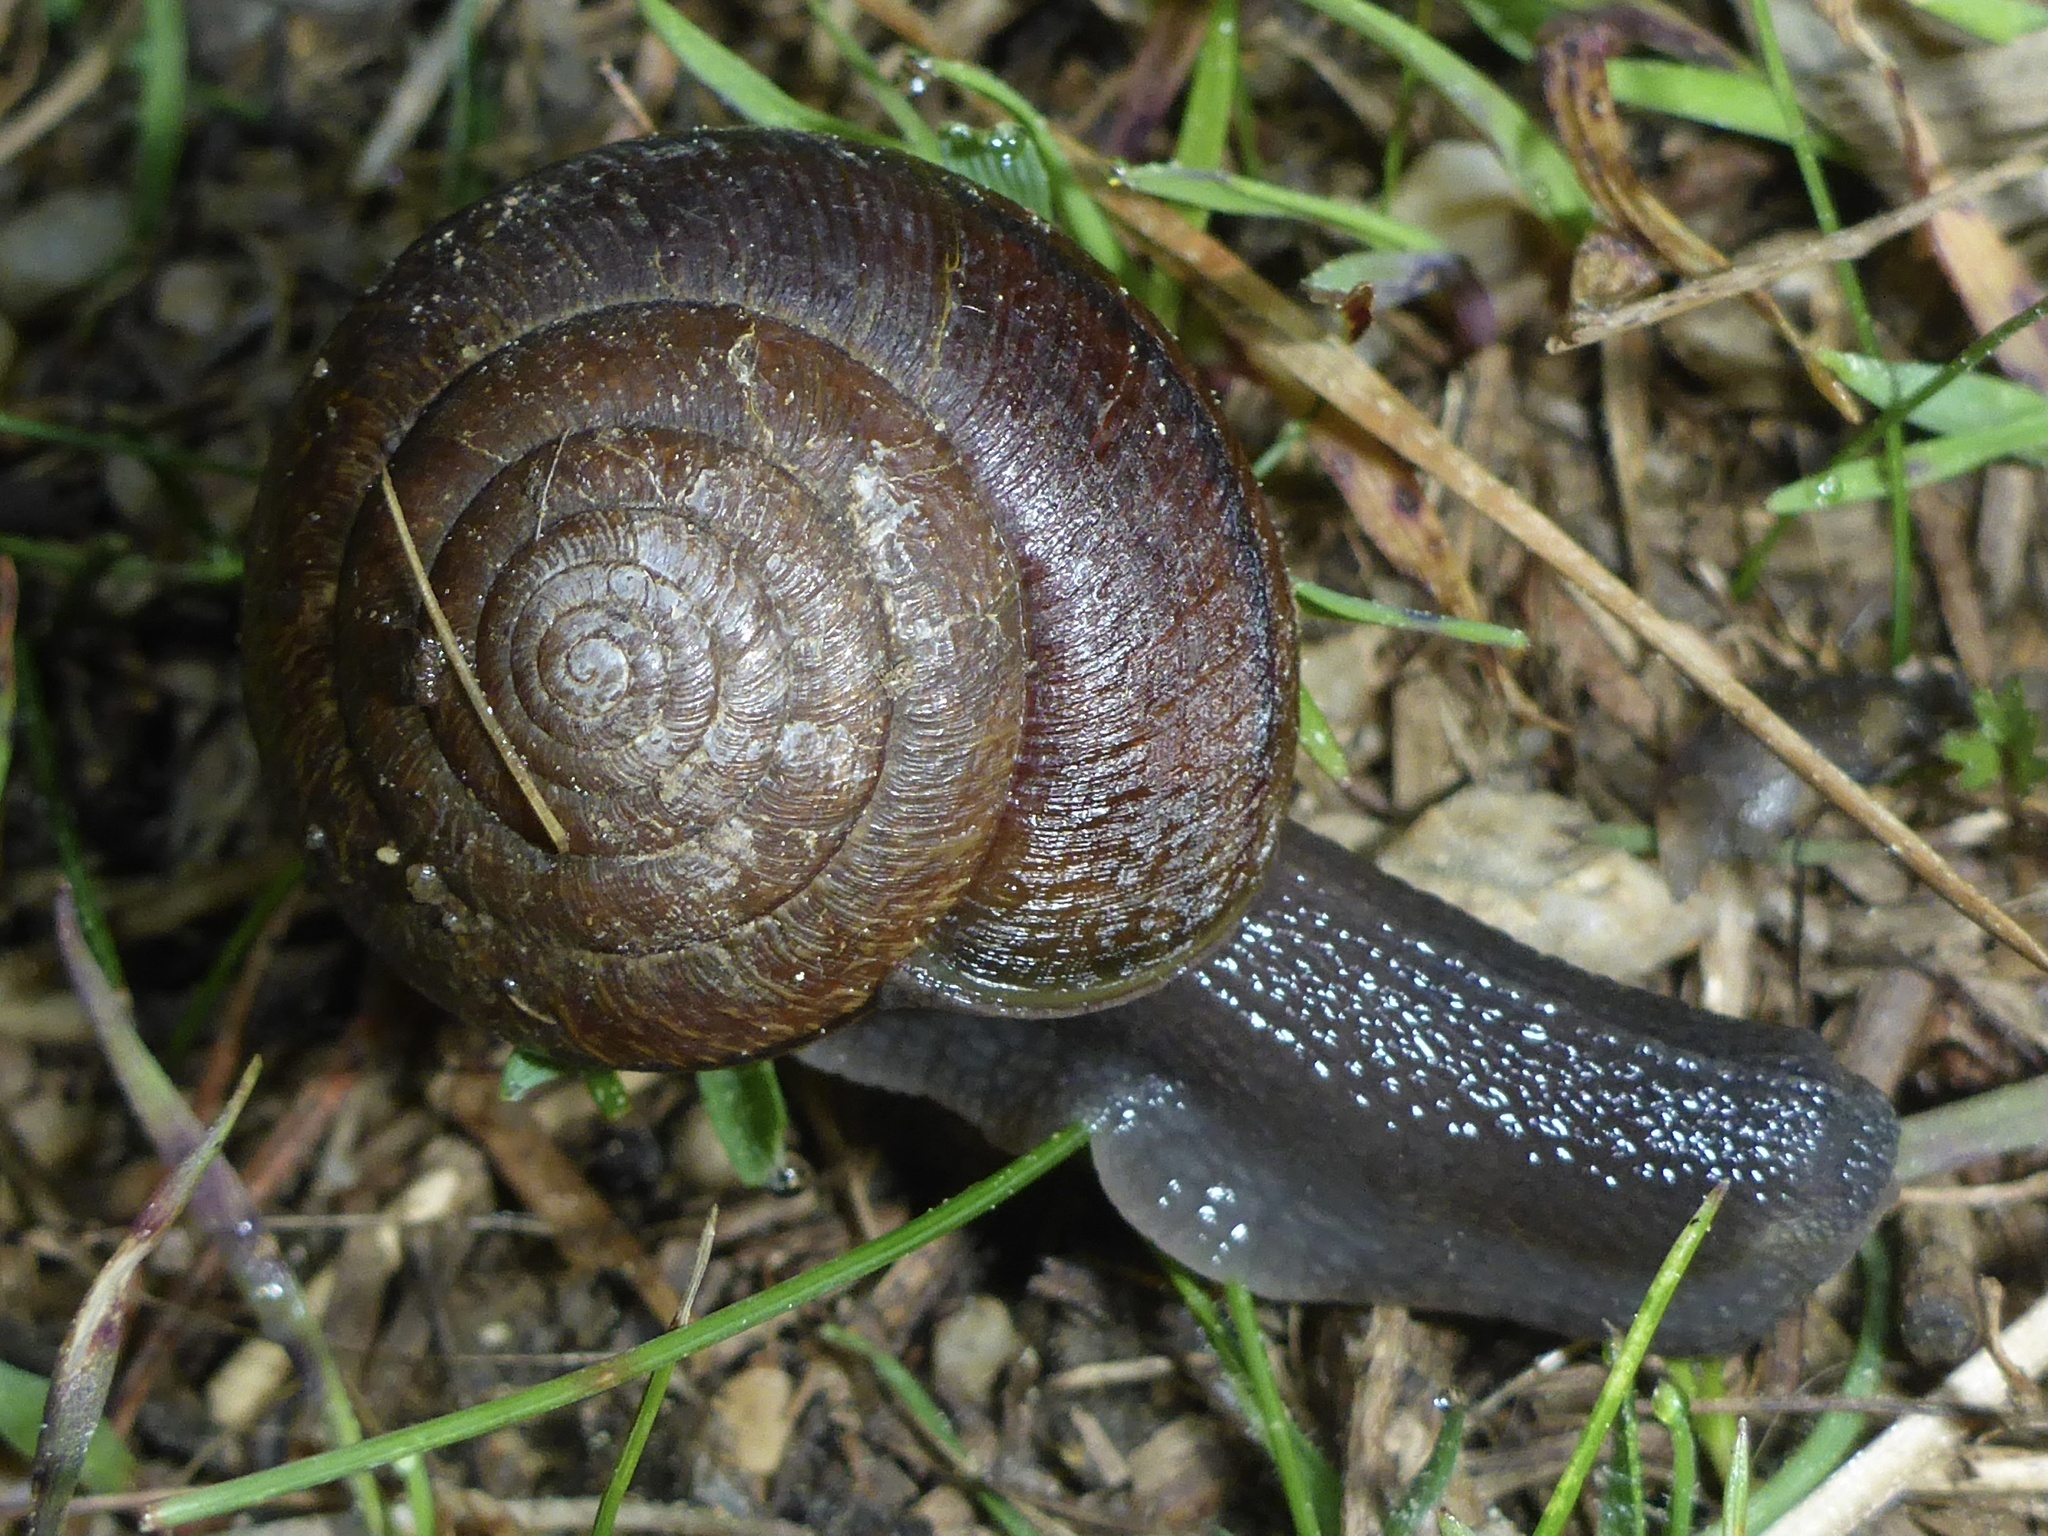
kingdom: Animalia
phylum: Mollusca
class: Gastropoda
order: Stylommatophora
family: Xanthonychidae
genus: Helminthoglypta
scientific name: Helminthoglypta arrosa
